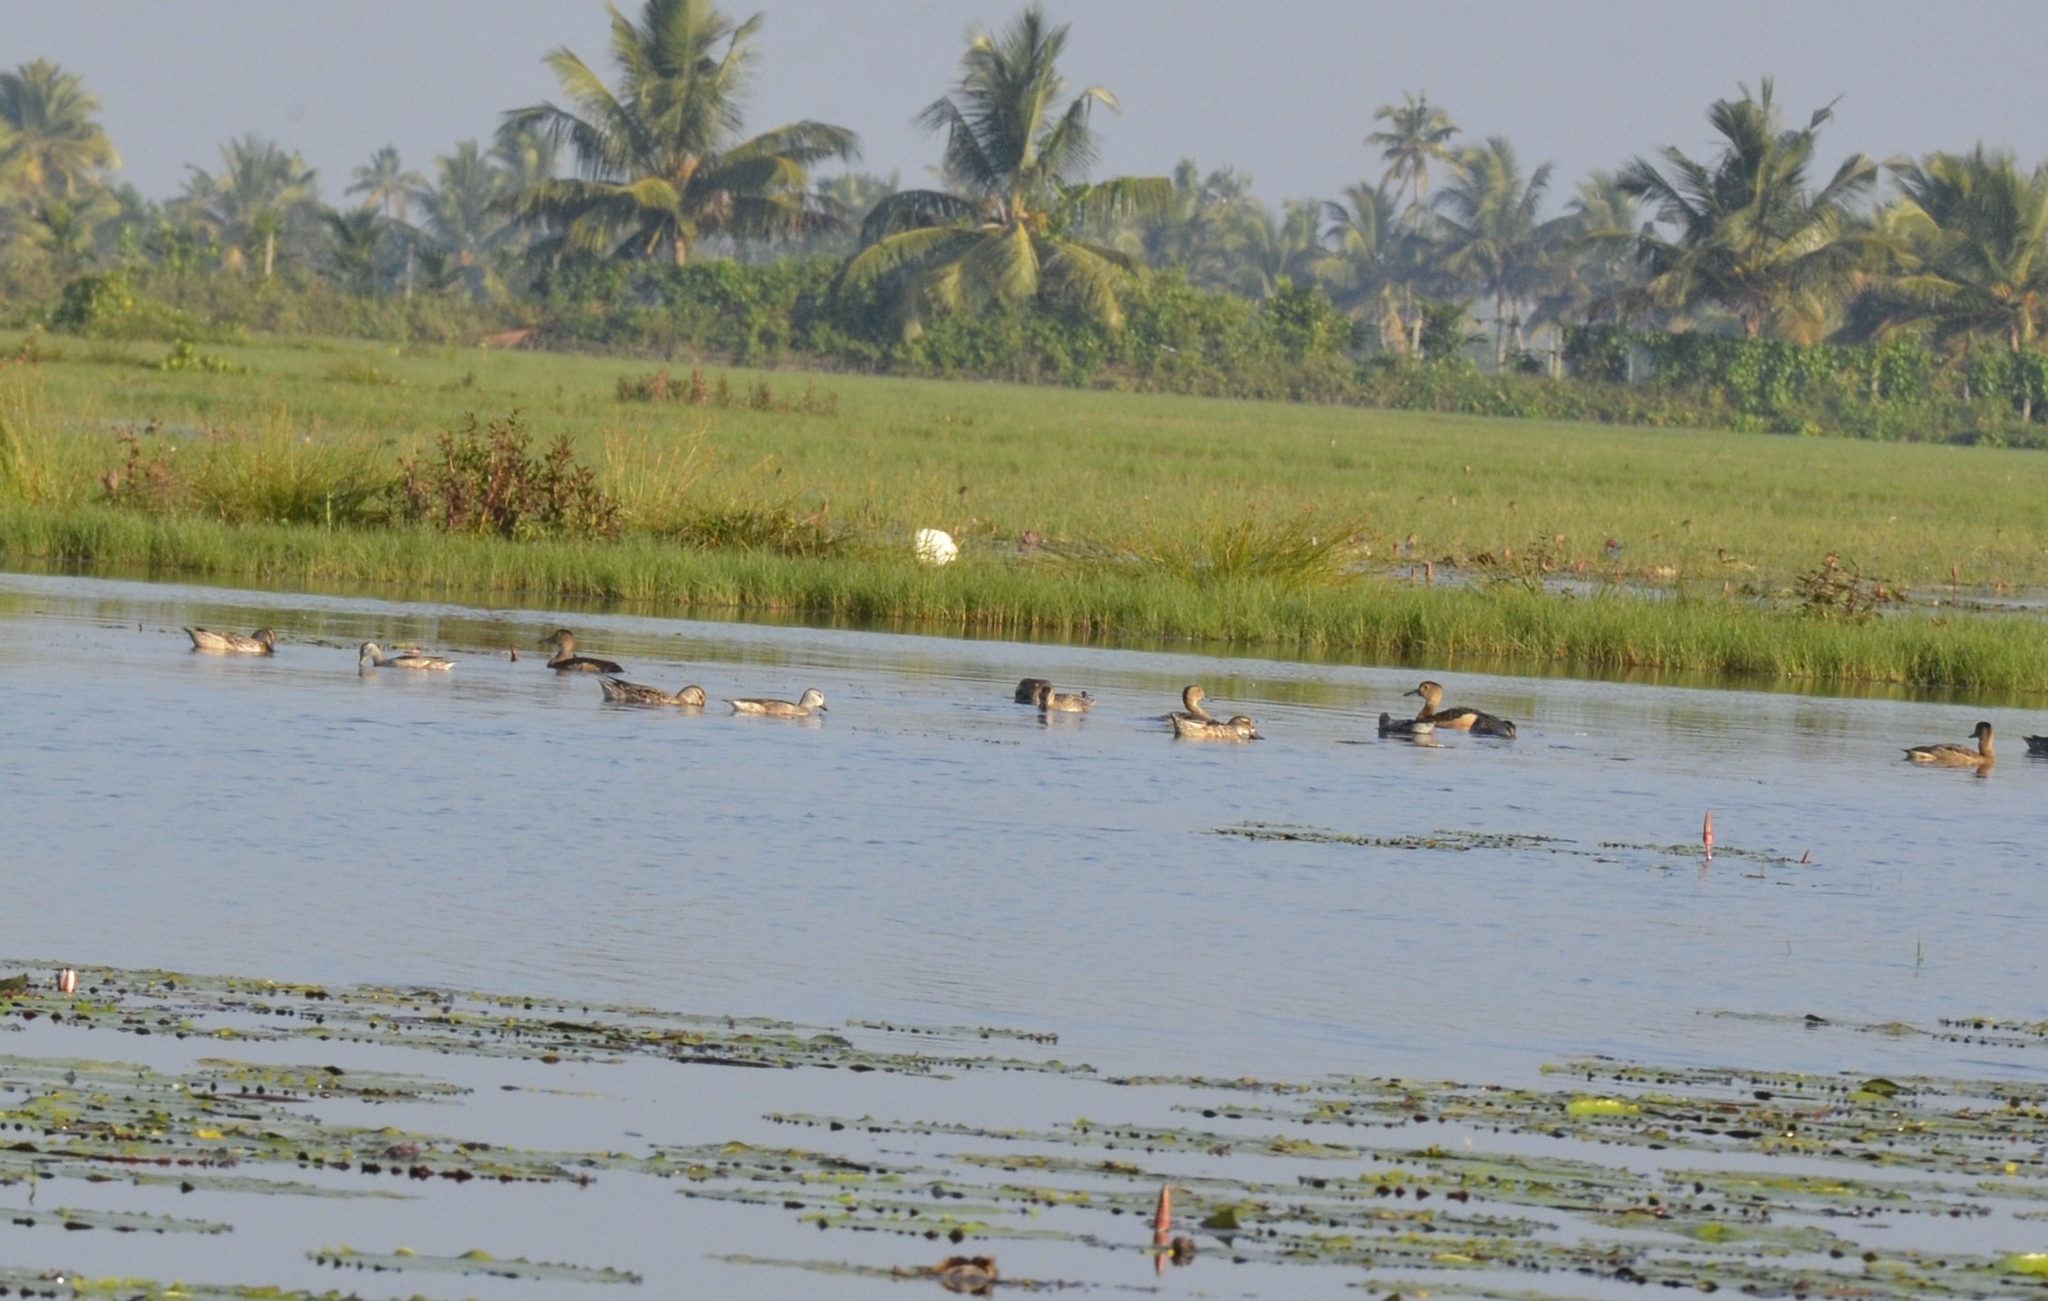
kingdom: Animalia
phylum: Chordata
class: Aves
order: Anseriformes
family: Anatidae
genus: Dendrocygna
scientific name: Dendrocygna javanica
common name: Lesser whistling-duck
